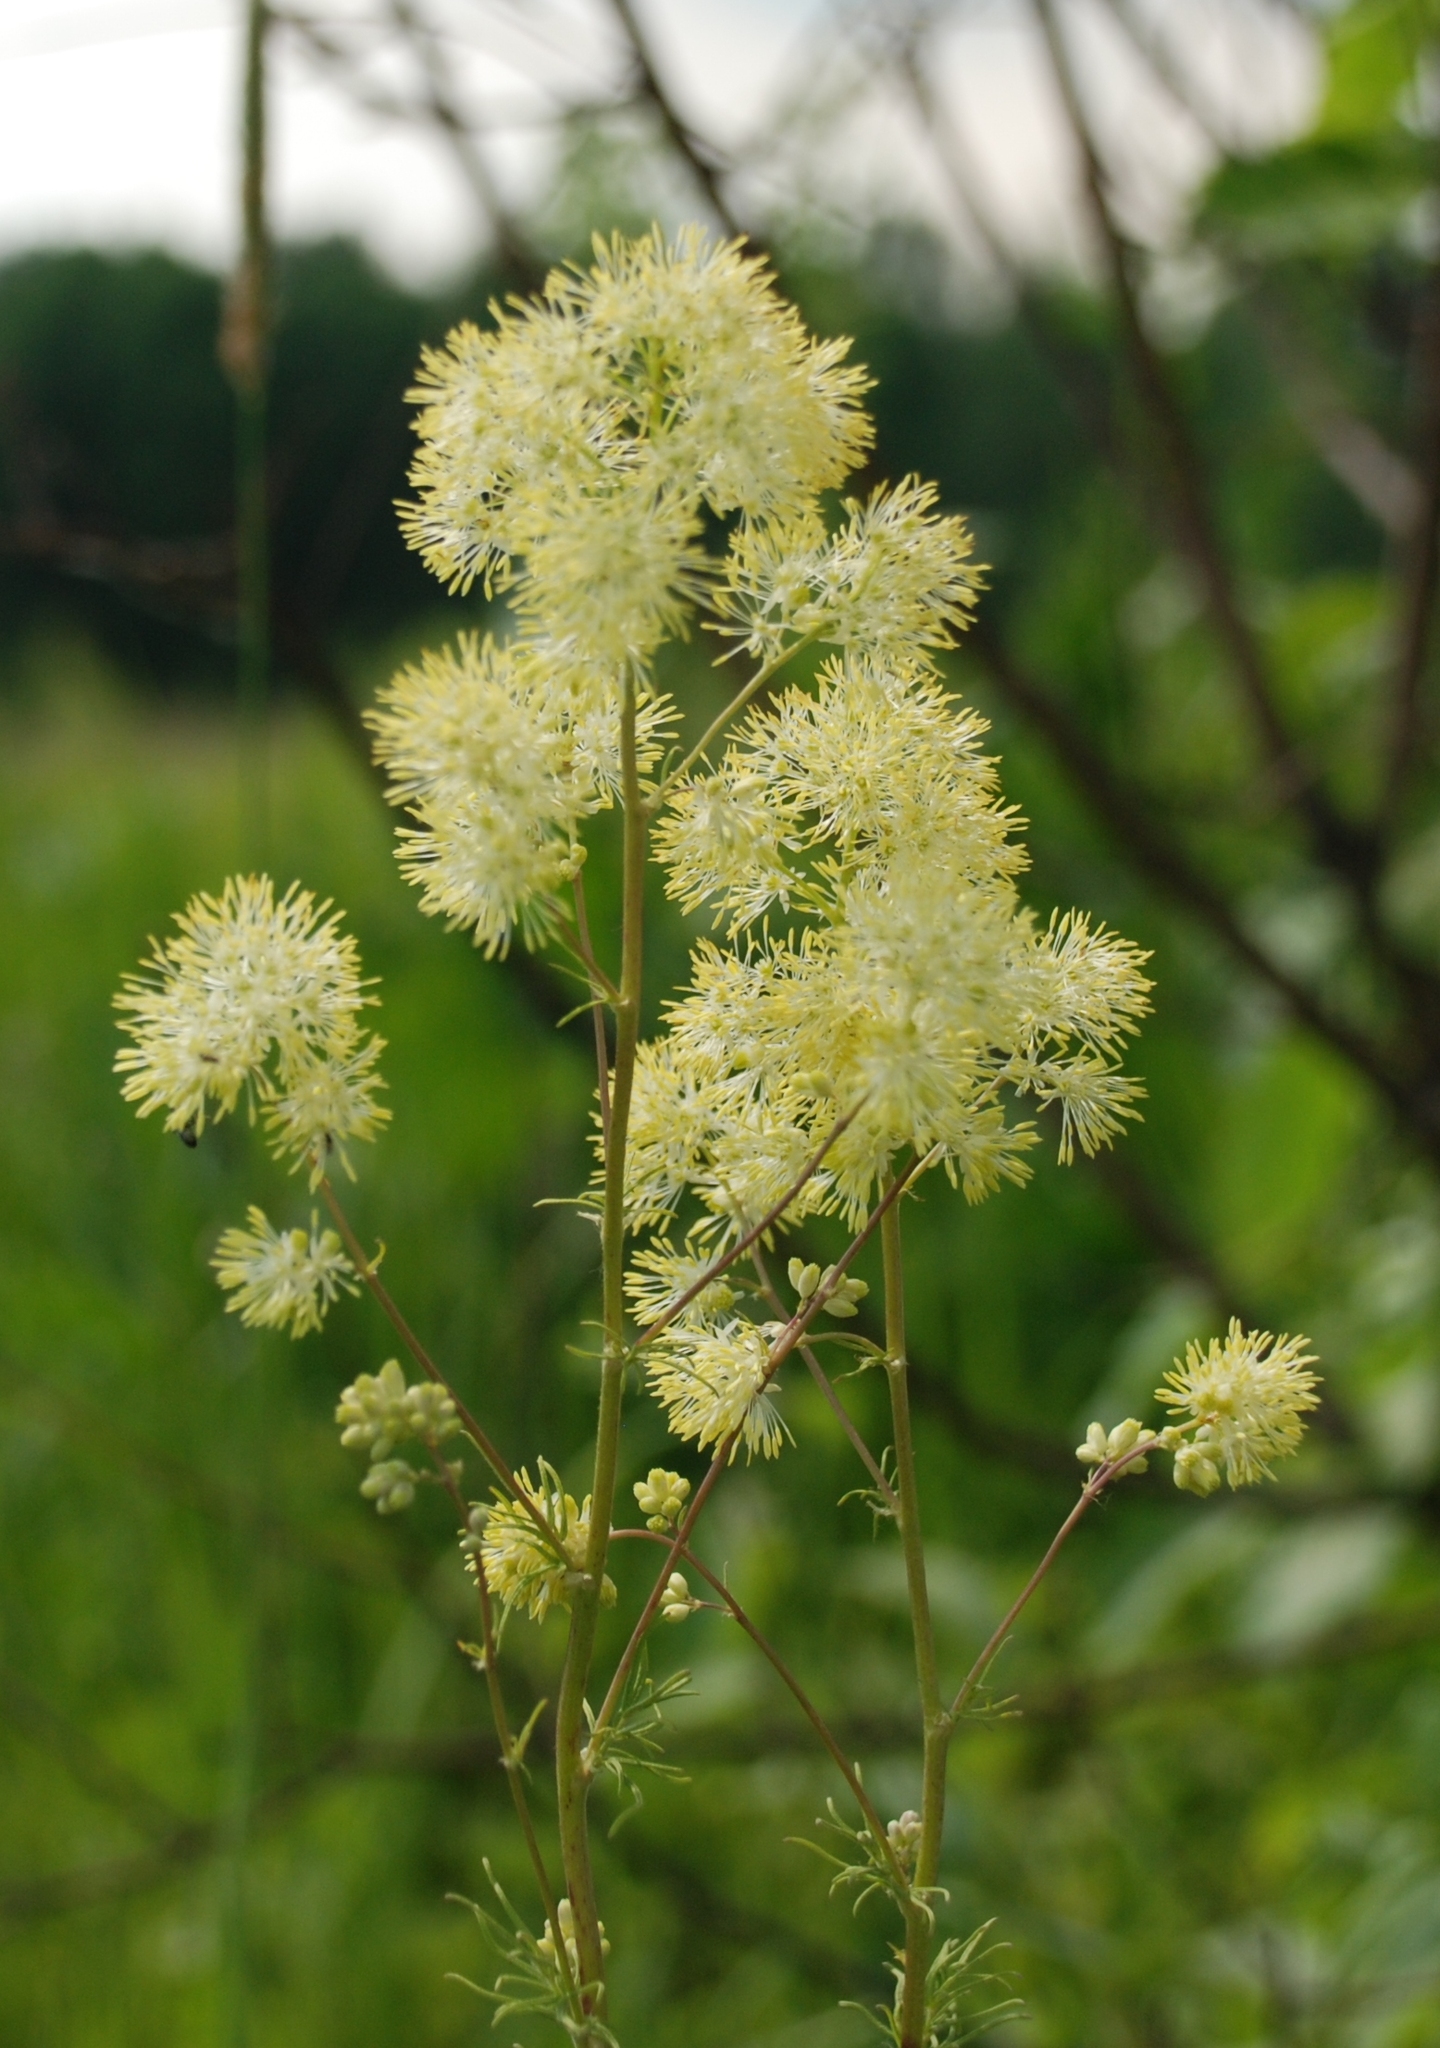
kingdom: Plantae
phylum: Tracheophyta
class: Magnoliopsida
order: Ranunculales
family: Ranunculaceae
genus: Thalictrum
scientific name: Thalictrum lucidum
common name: Shining meadow-rue
